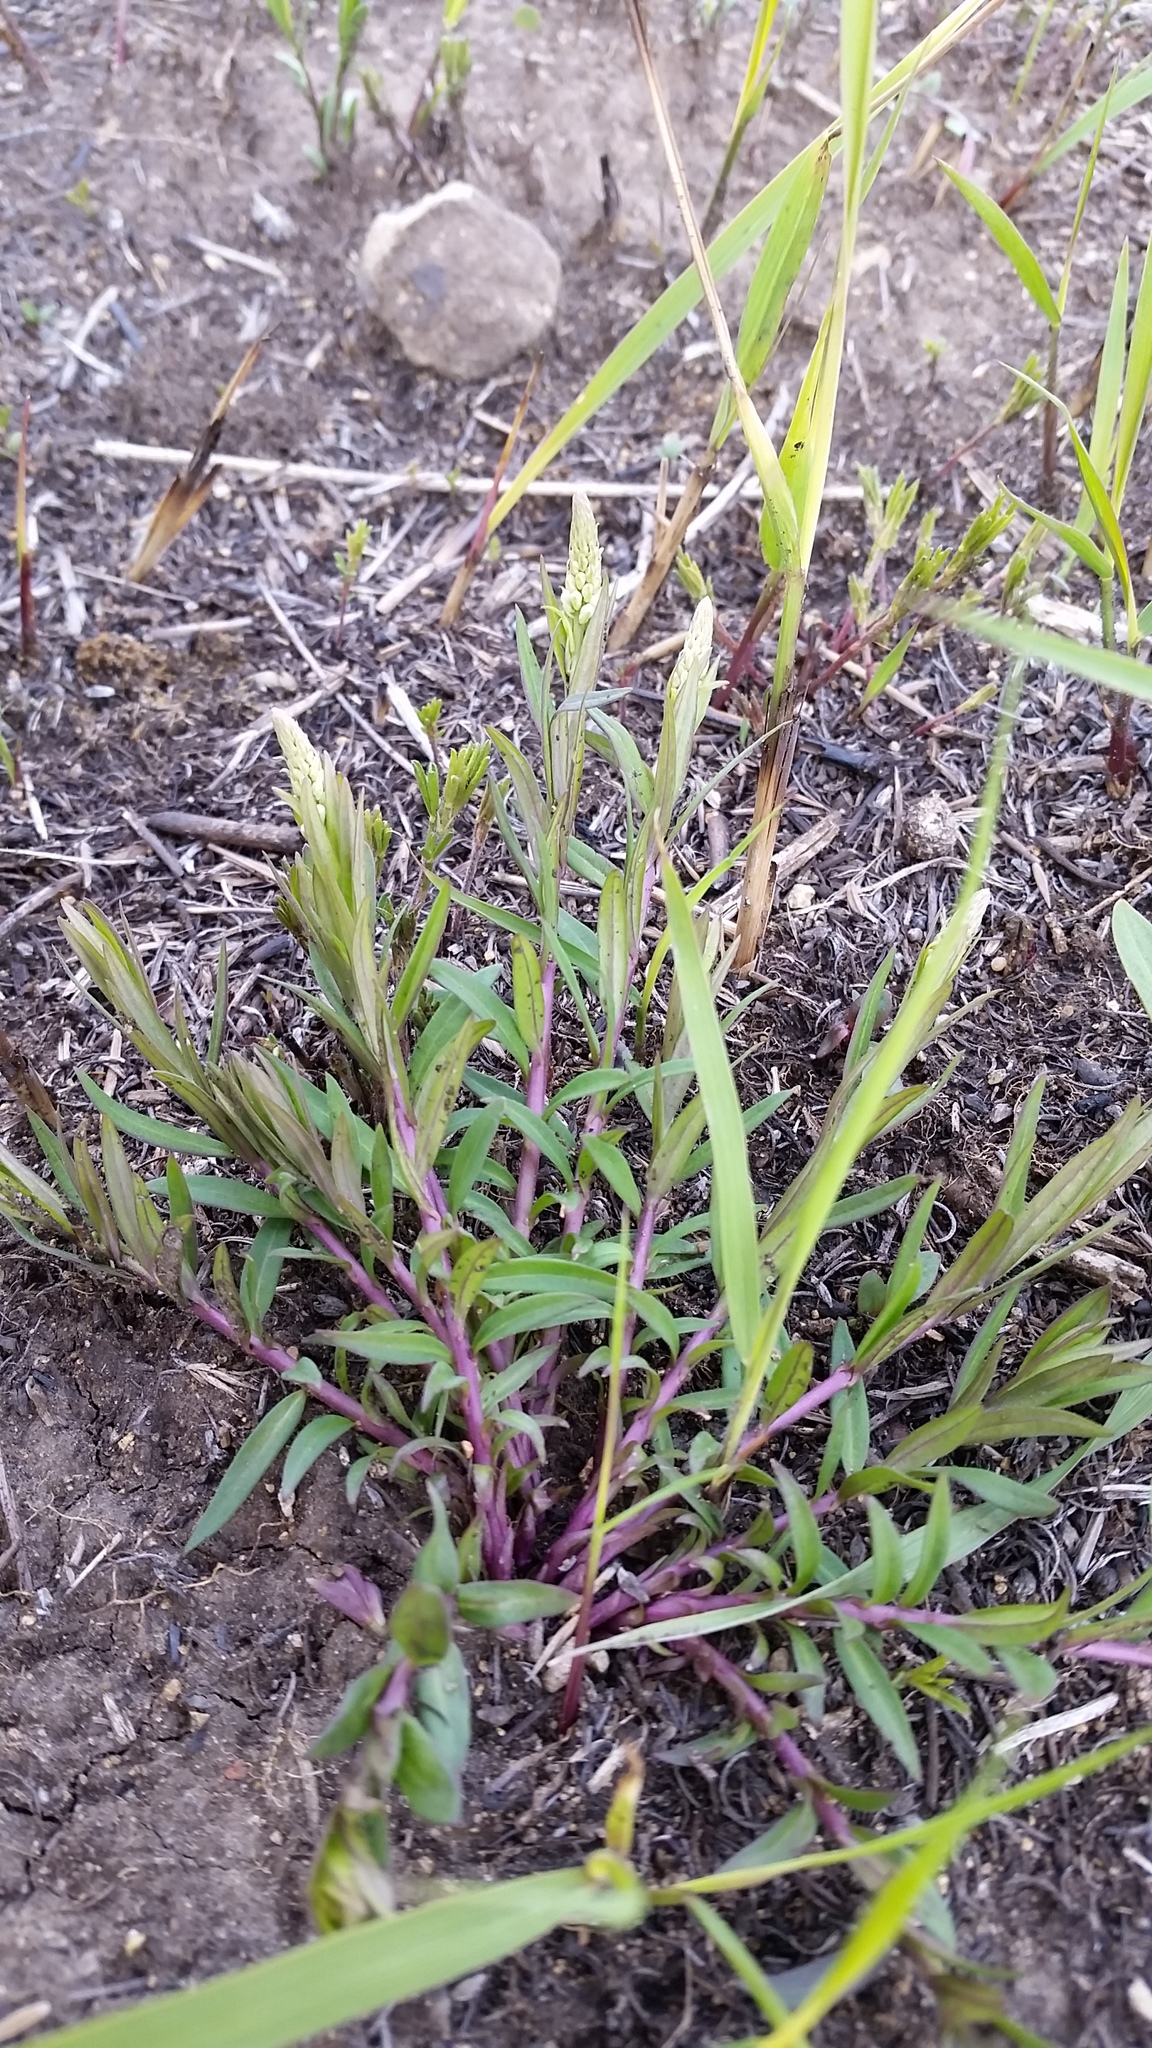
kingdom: Plantae
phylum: Tracheophyta
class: Magnoliopsida
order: Fabales
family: Polygalaceae
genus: Polygala
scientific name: Polygala senega
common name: Seneca snakeroot
